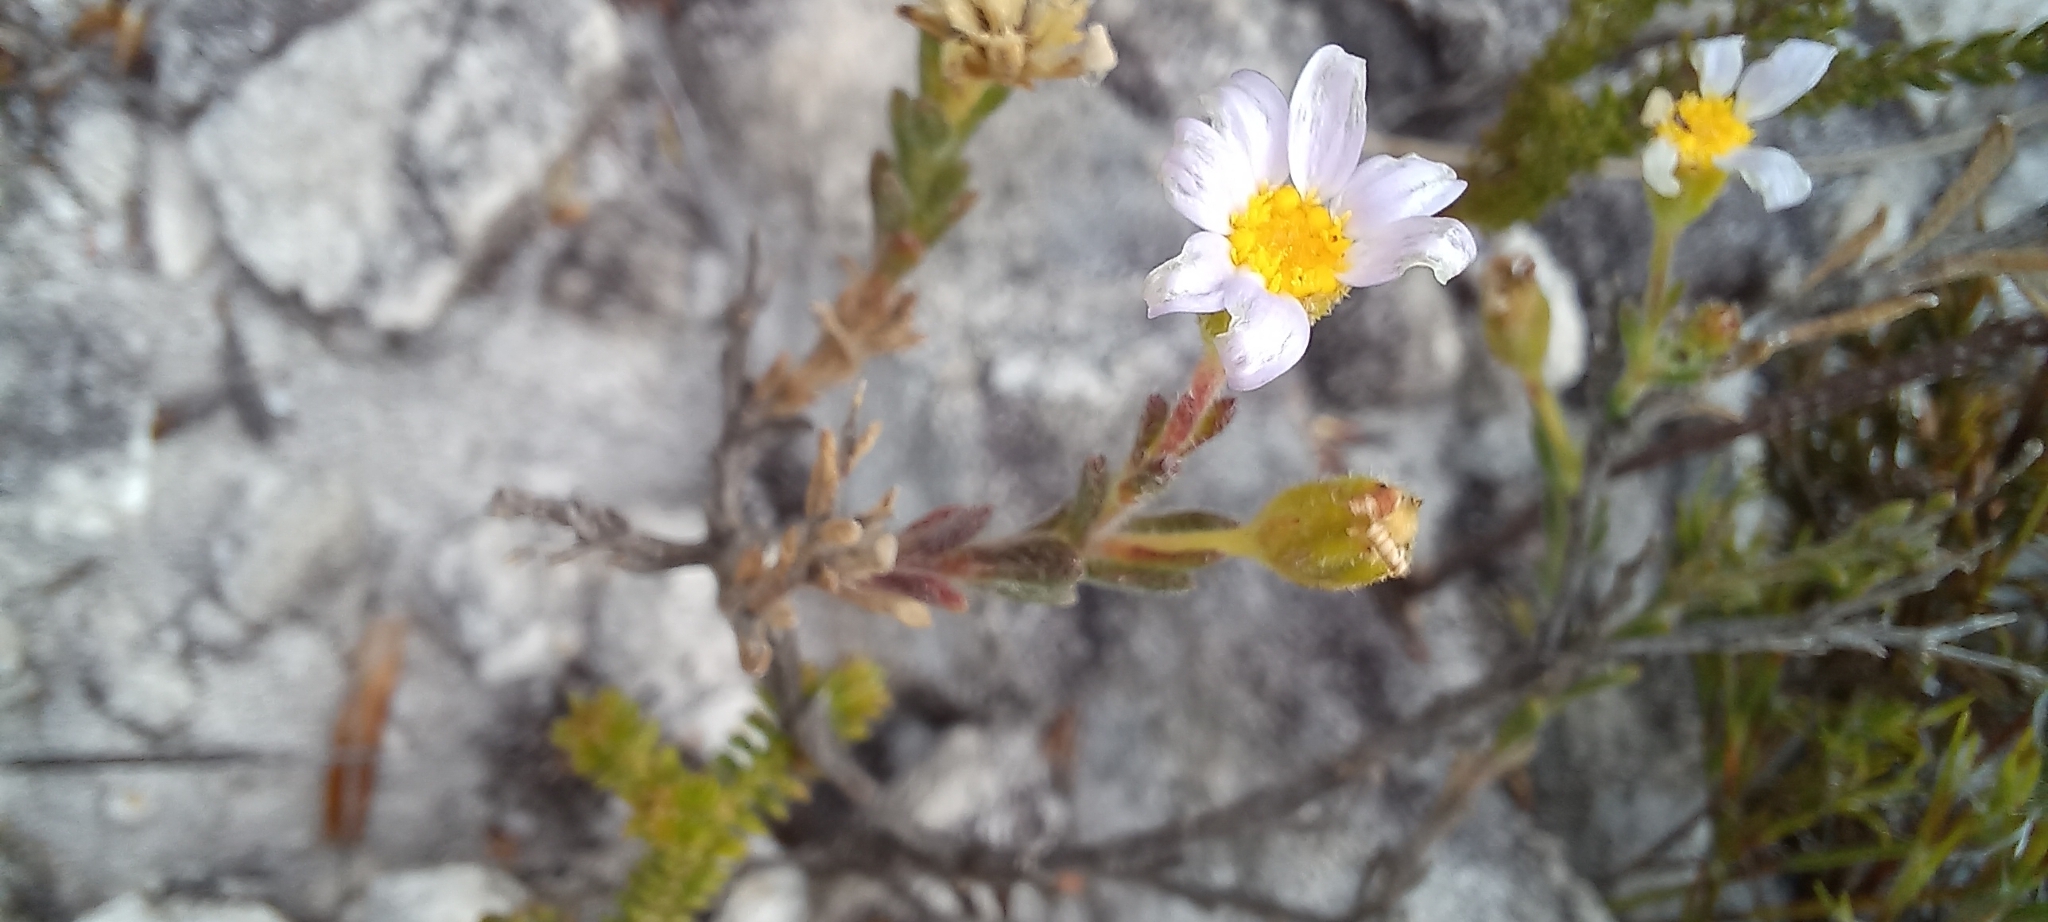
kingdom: Plantae
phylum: Tracheophyta
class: Magnoliopsida
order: Asterales
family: Asteraceae
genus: Zyrphelis
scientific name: Zyrphelis foliosa
